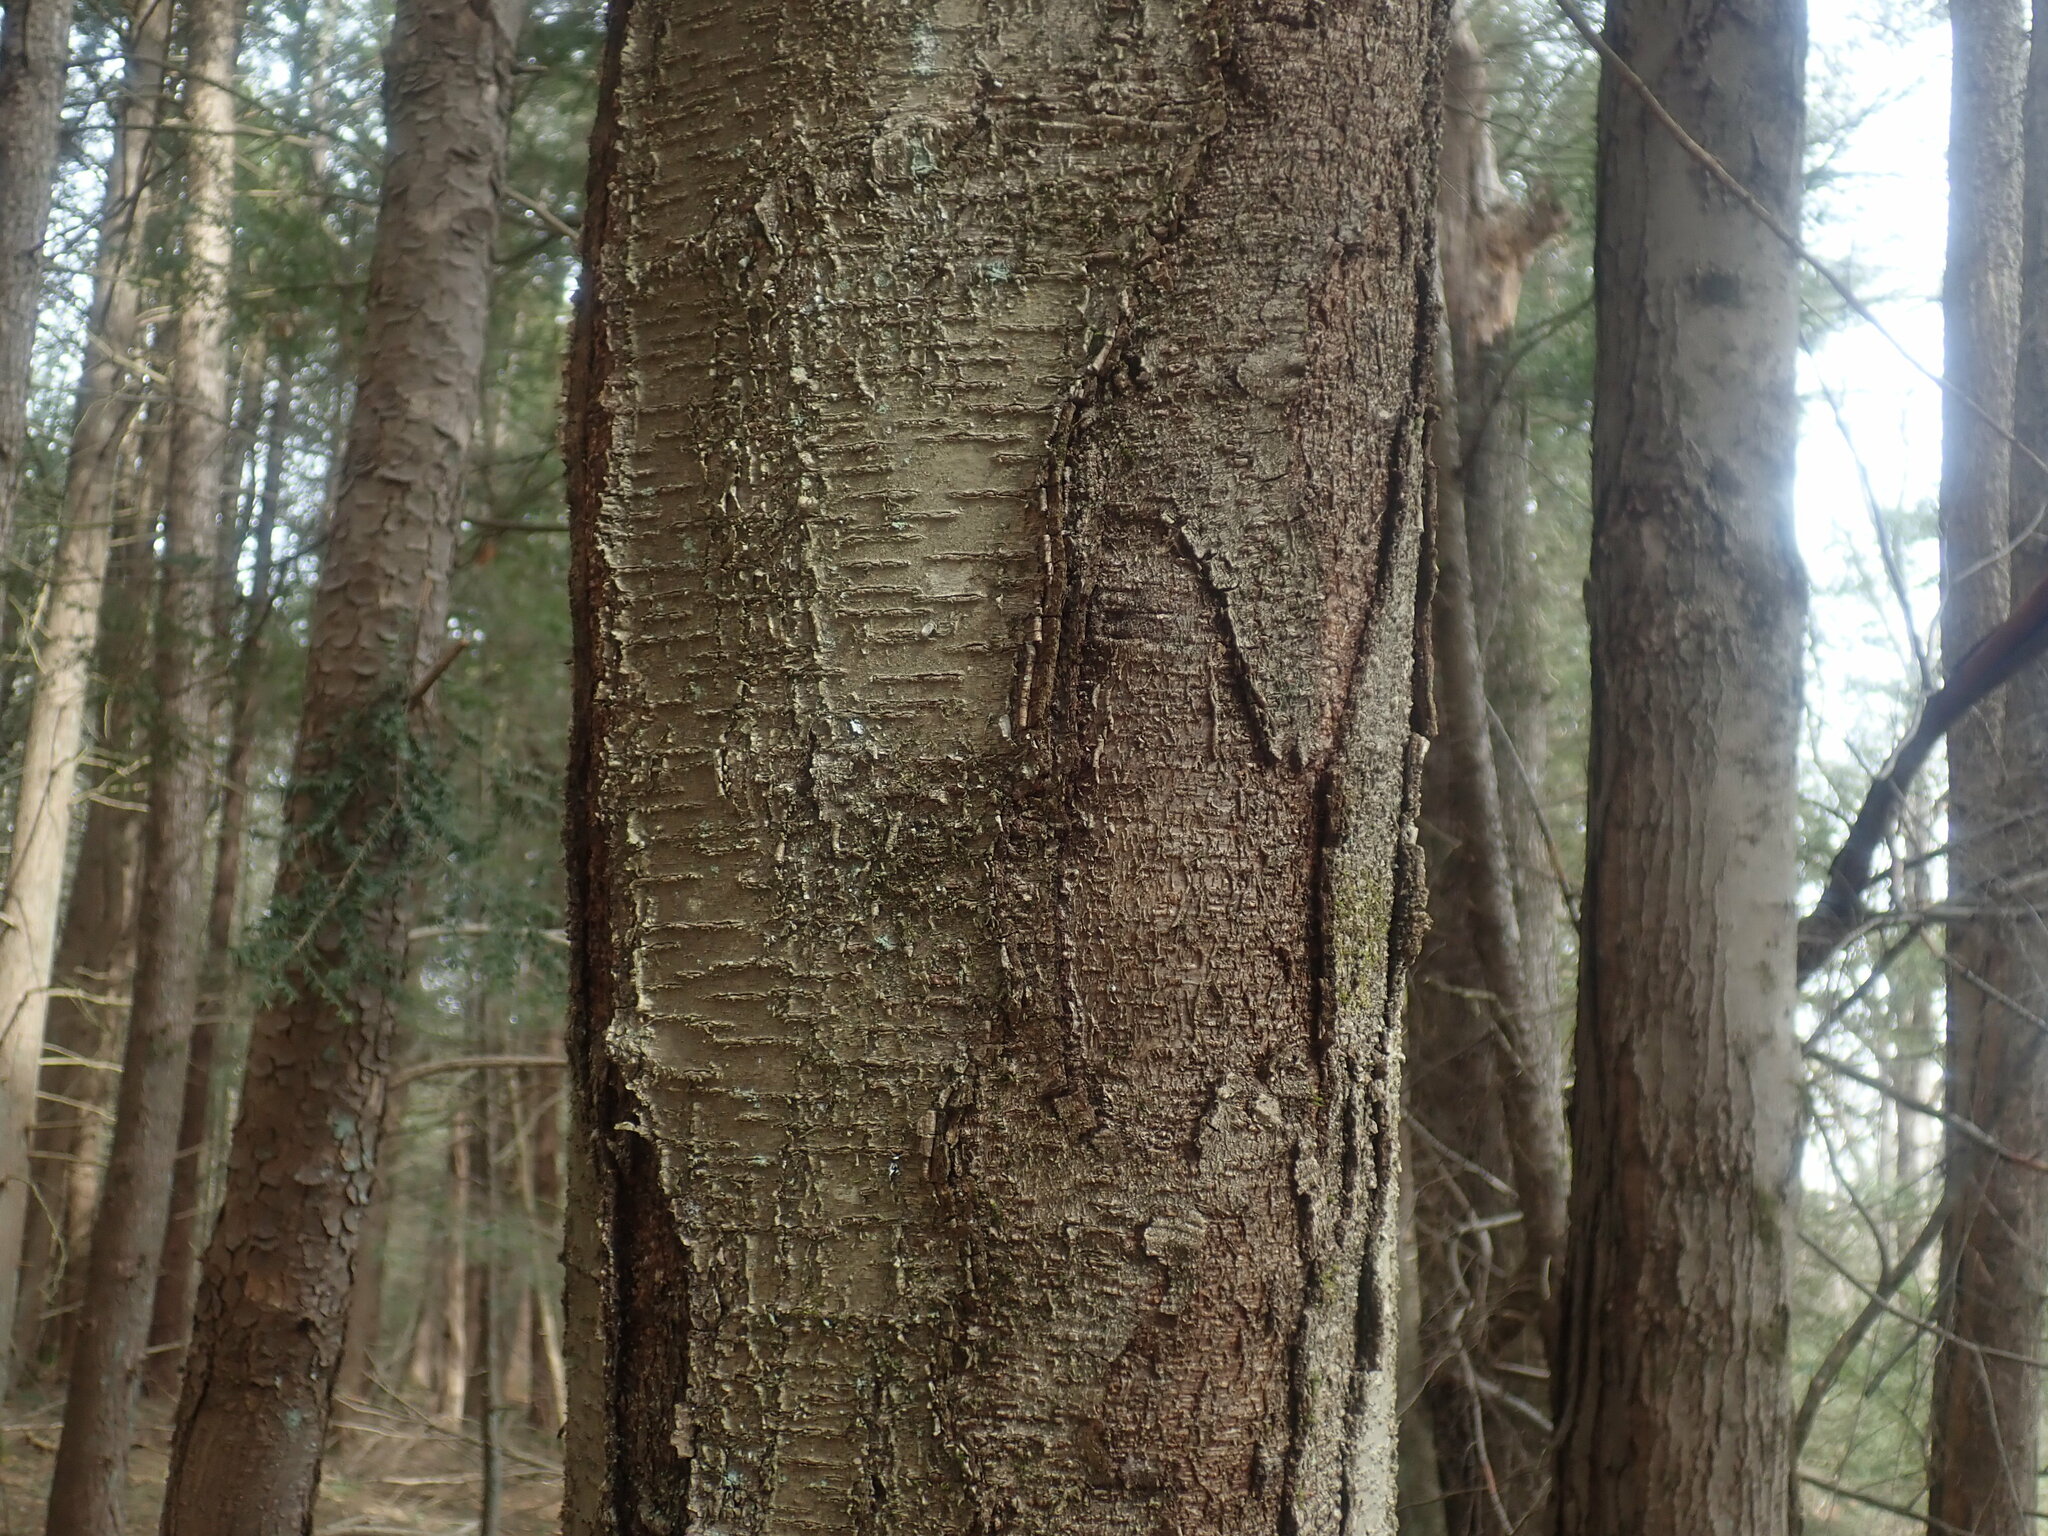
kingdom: Plantae
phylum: Tracheophyta
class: Magnoliopsida
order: Fagales
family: Betulaceae
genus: Betula
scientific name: Betula lenta
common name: Black birch
